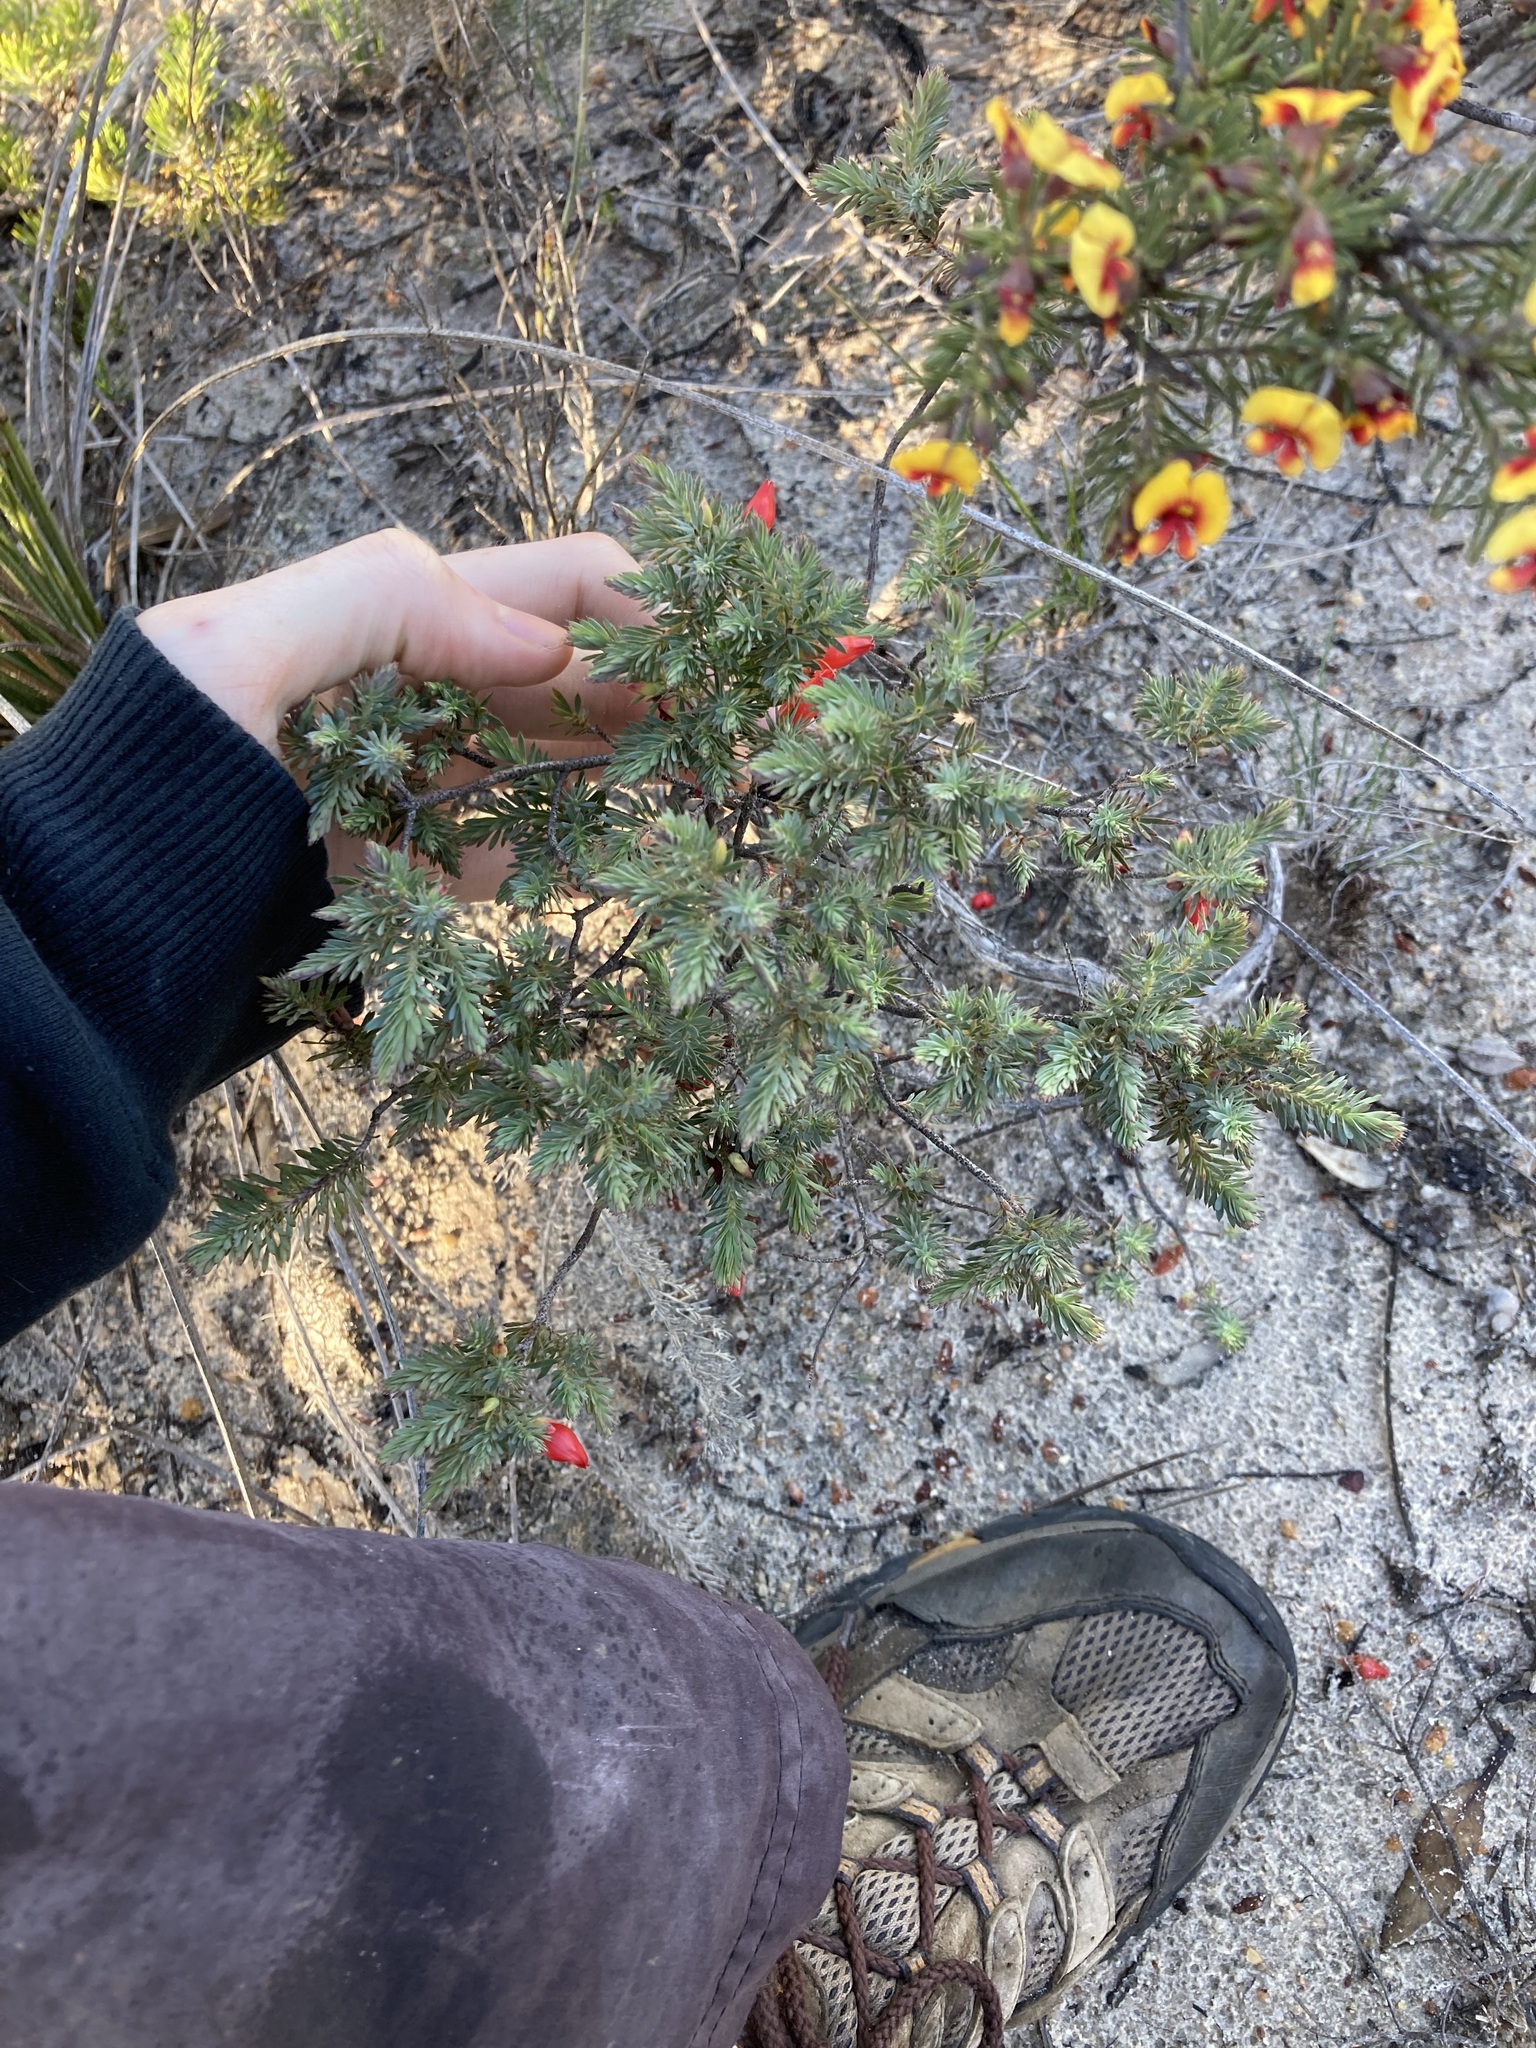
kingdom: Plantae
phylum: Tracheophyta
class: Magnoliopsida
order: Ericales
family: Ericaceae
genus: Styphelia
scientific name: Styphelia tortifolia
